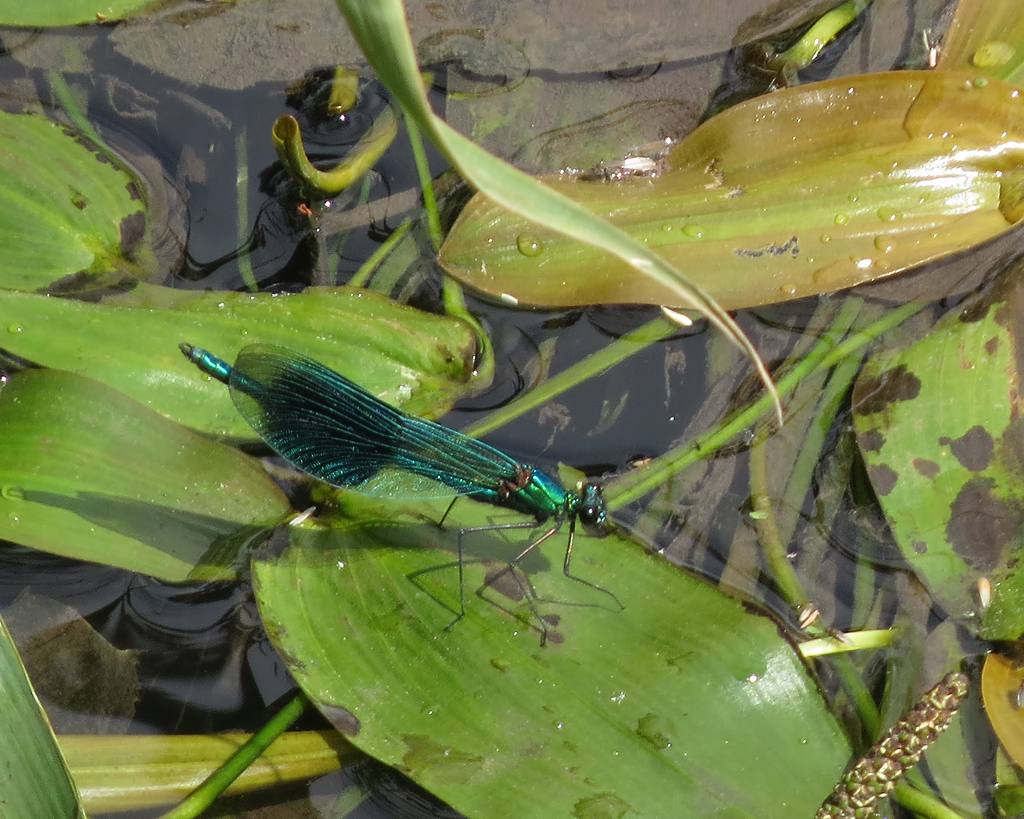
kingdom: Animalia
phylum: Arthropoda
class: Insecta
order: Odonata
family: Calopterygidae
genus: Calopteryx
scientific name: Calopteryx splendens
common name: Banded demoiselle
